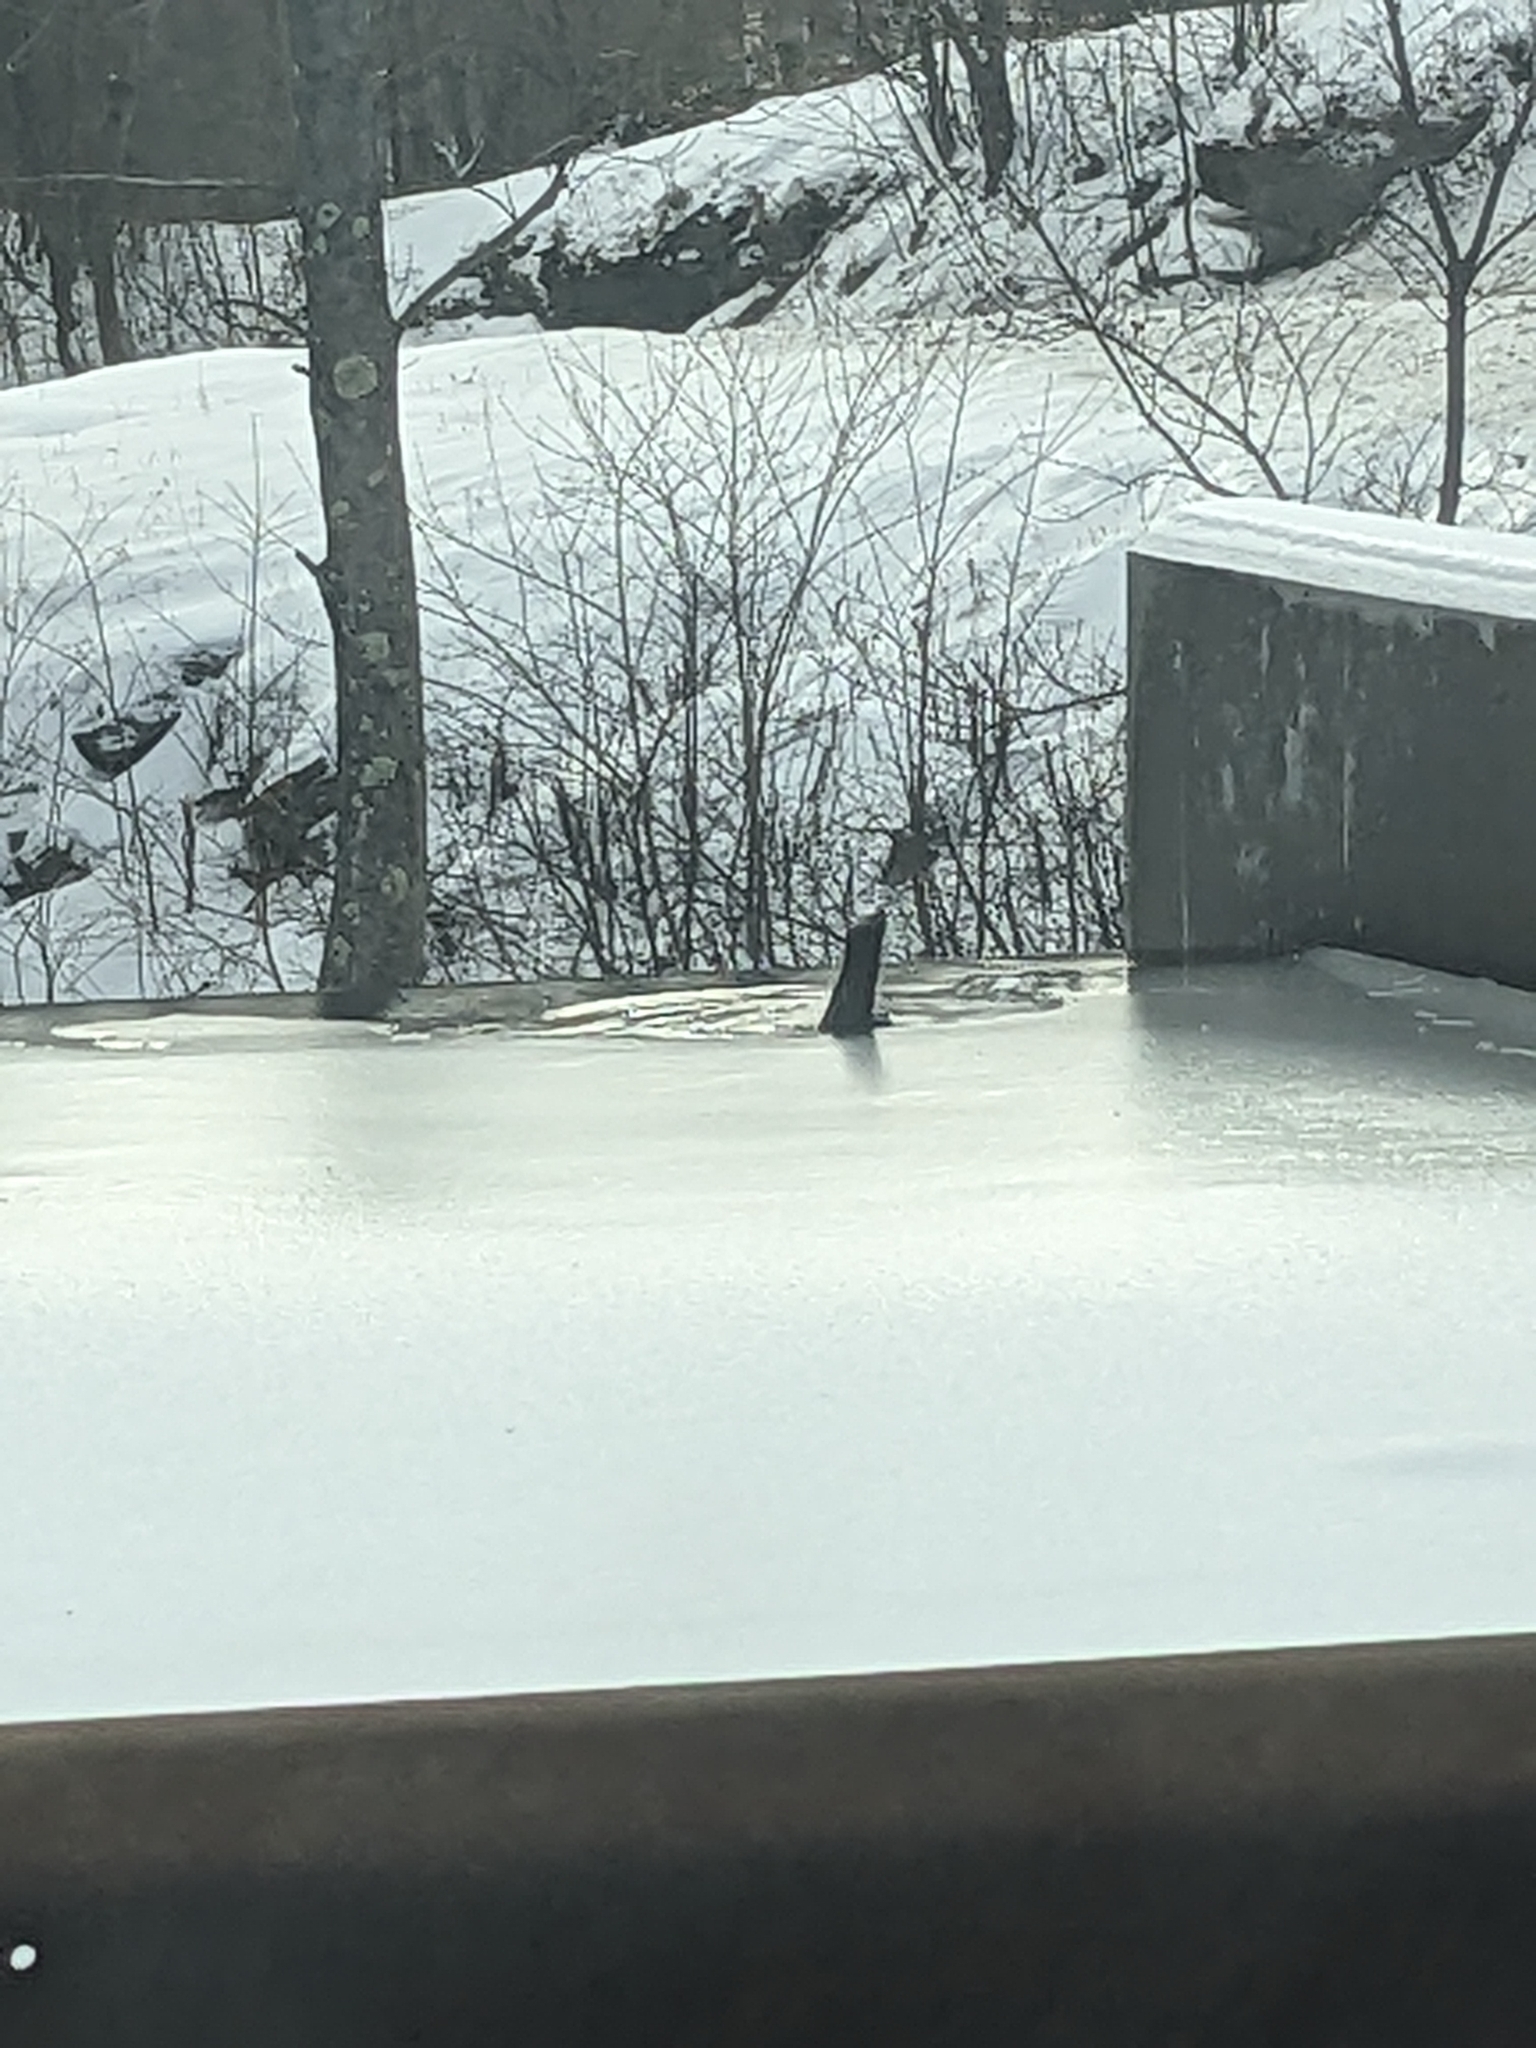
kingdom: Animalia
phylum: Chordata
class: Mammalia
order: Carnivora
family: Mustelidae
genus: Lontra
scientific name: Lontra canadensis
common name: North american river otter
